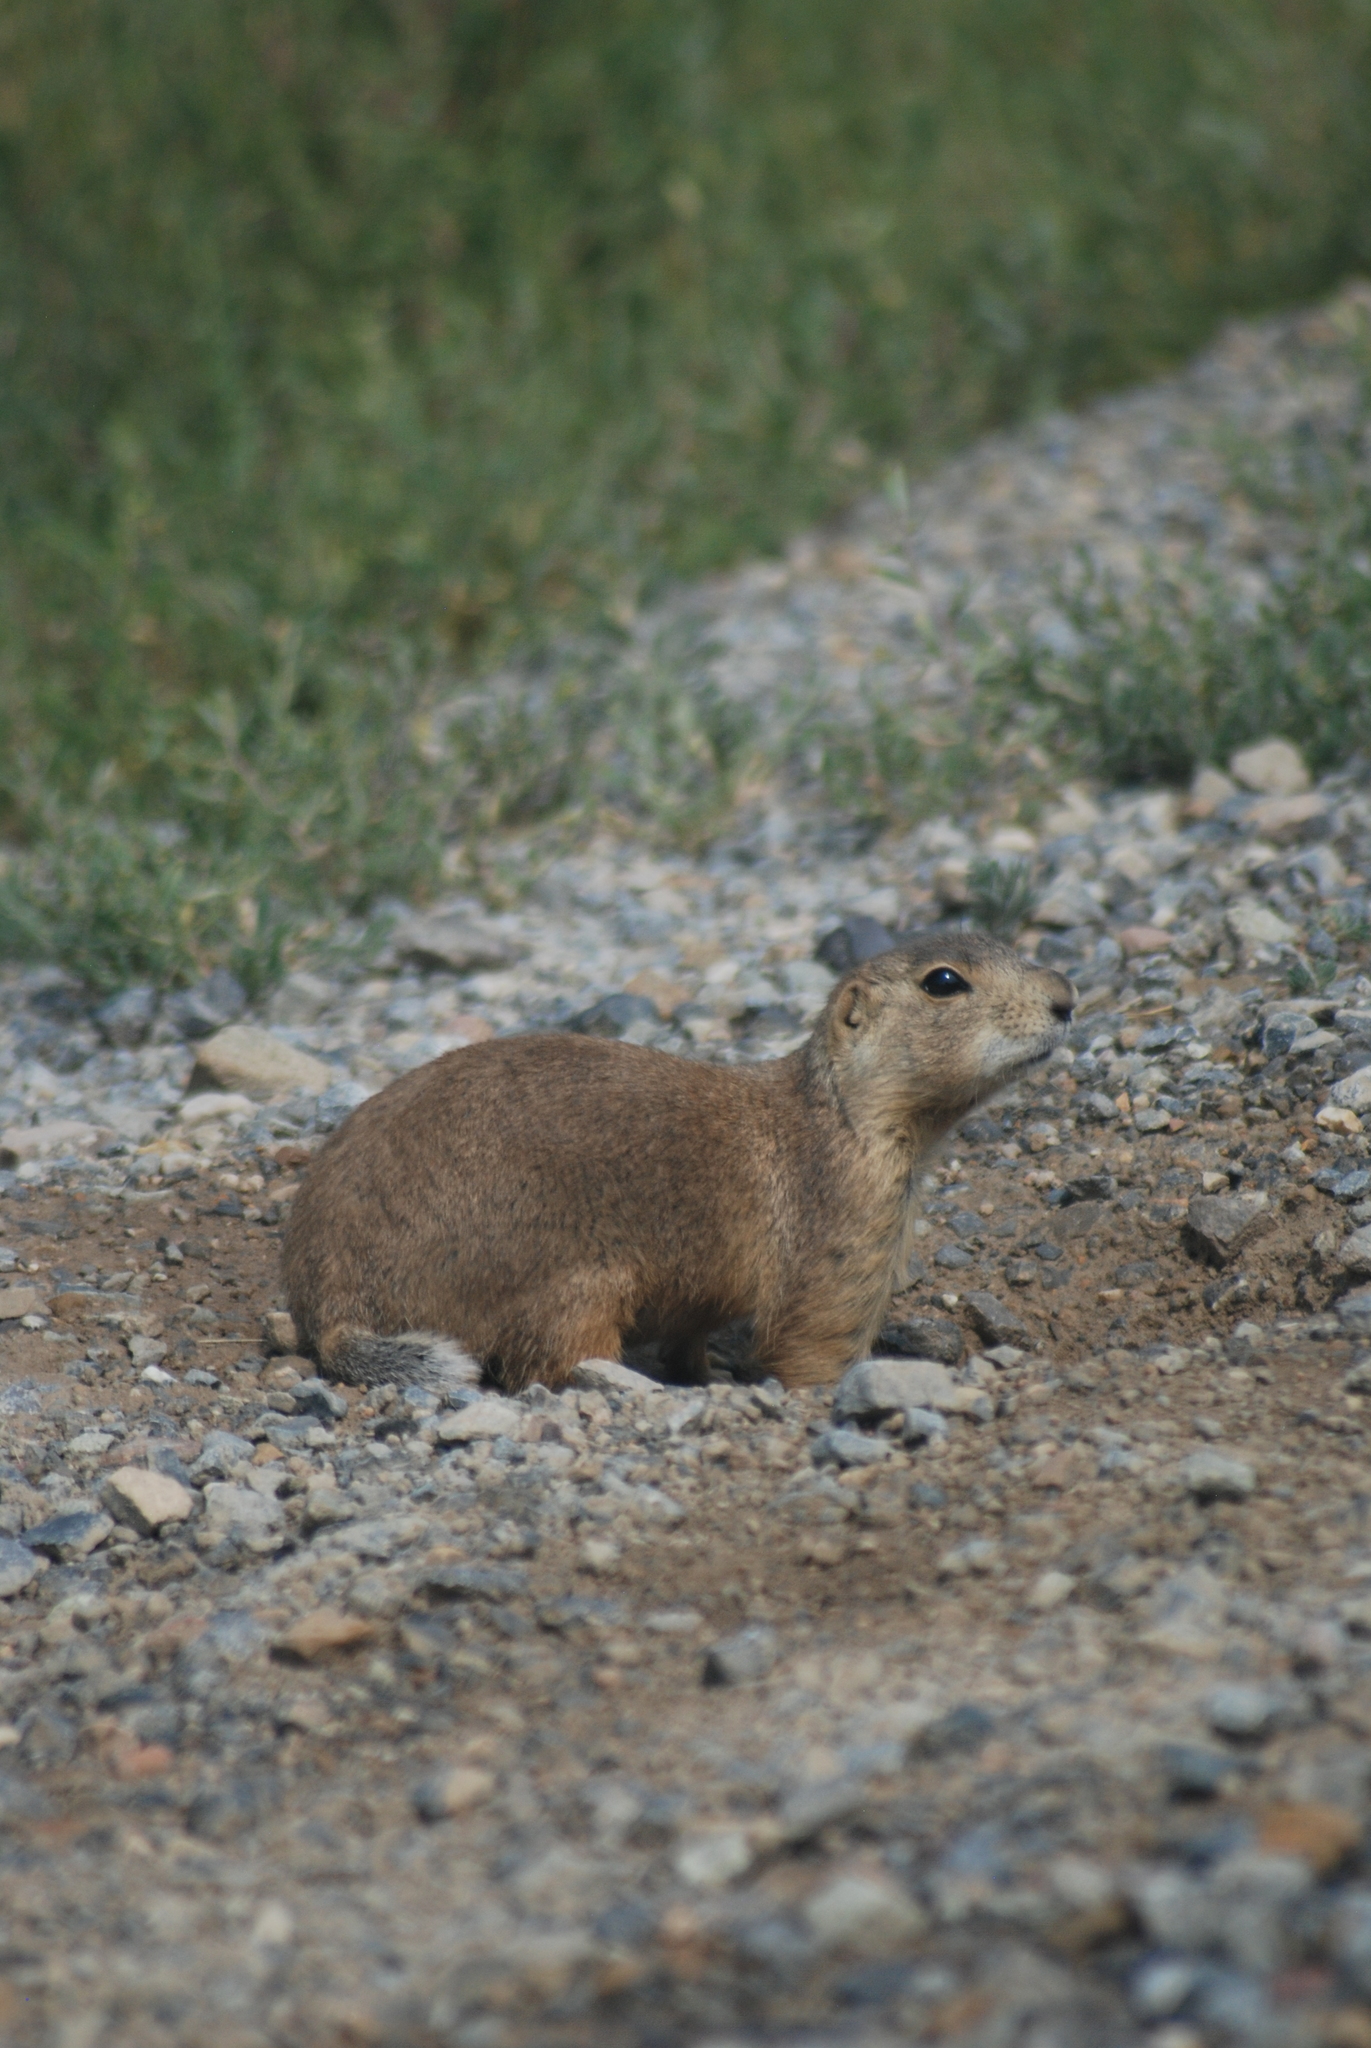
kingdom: Animalia
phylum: Chordata
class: Mammalia
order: Rodentia
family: Sciuridae
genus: Cynomys
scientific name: Cynomys gunnisoni
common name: Gunnison's prairie dog
